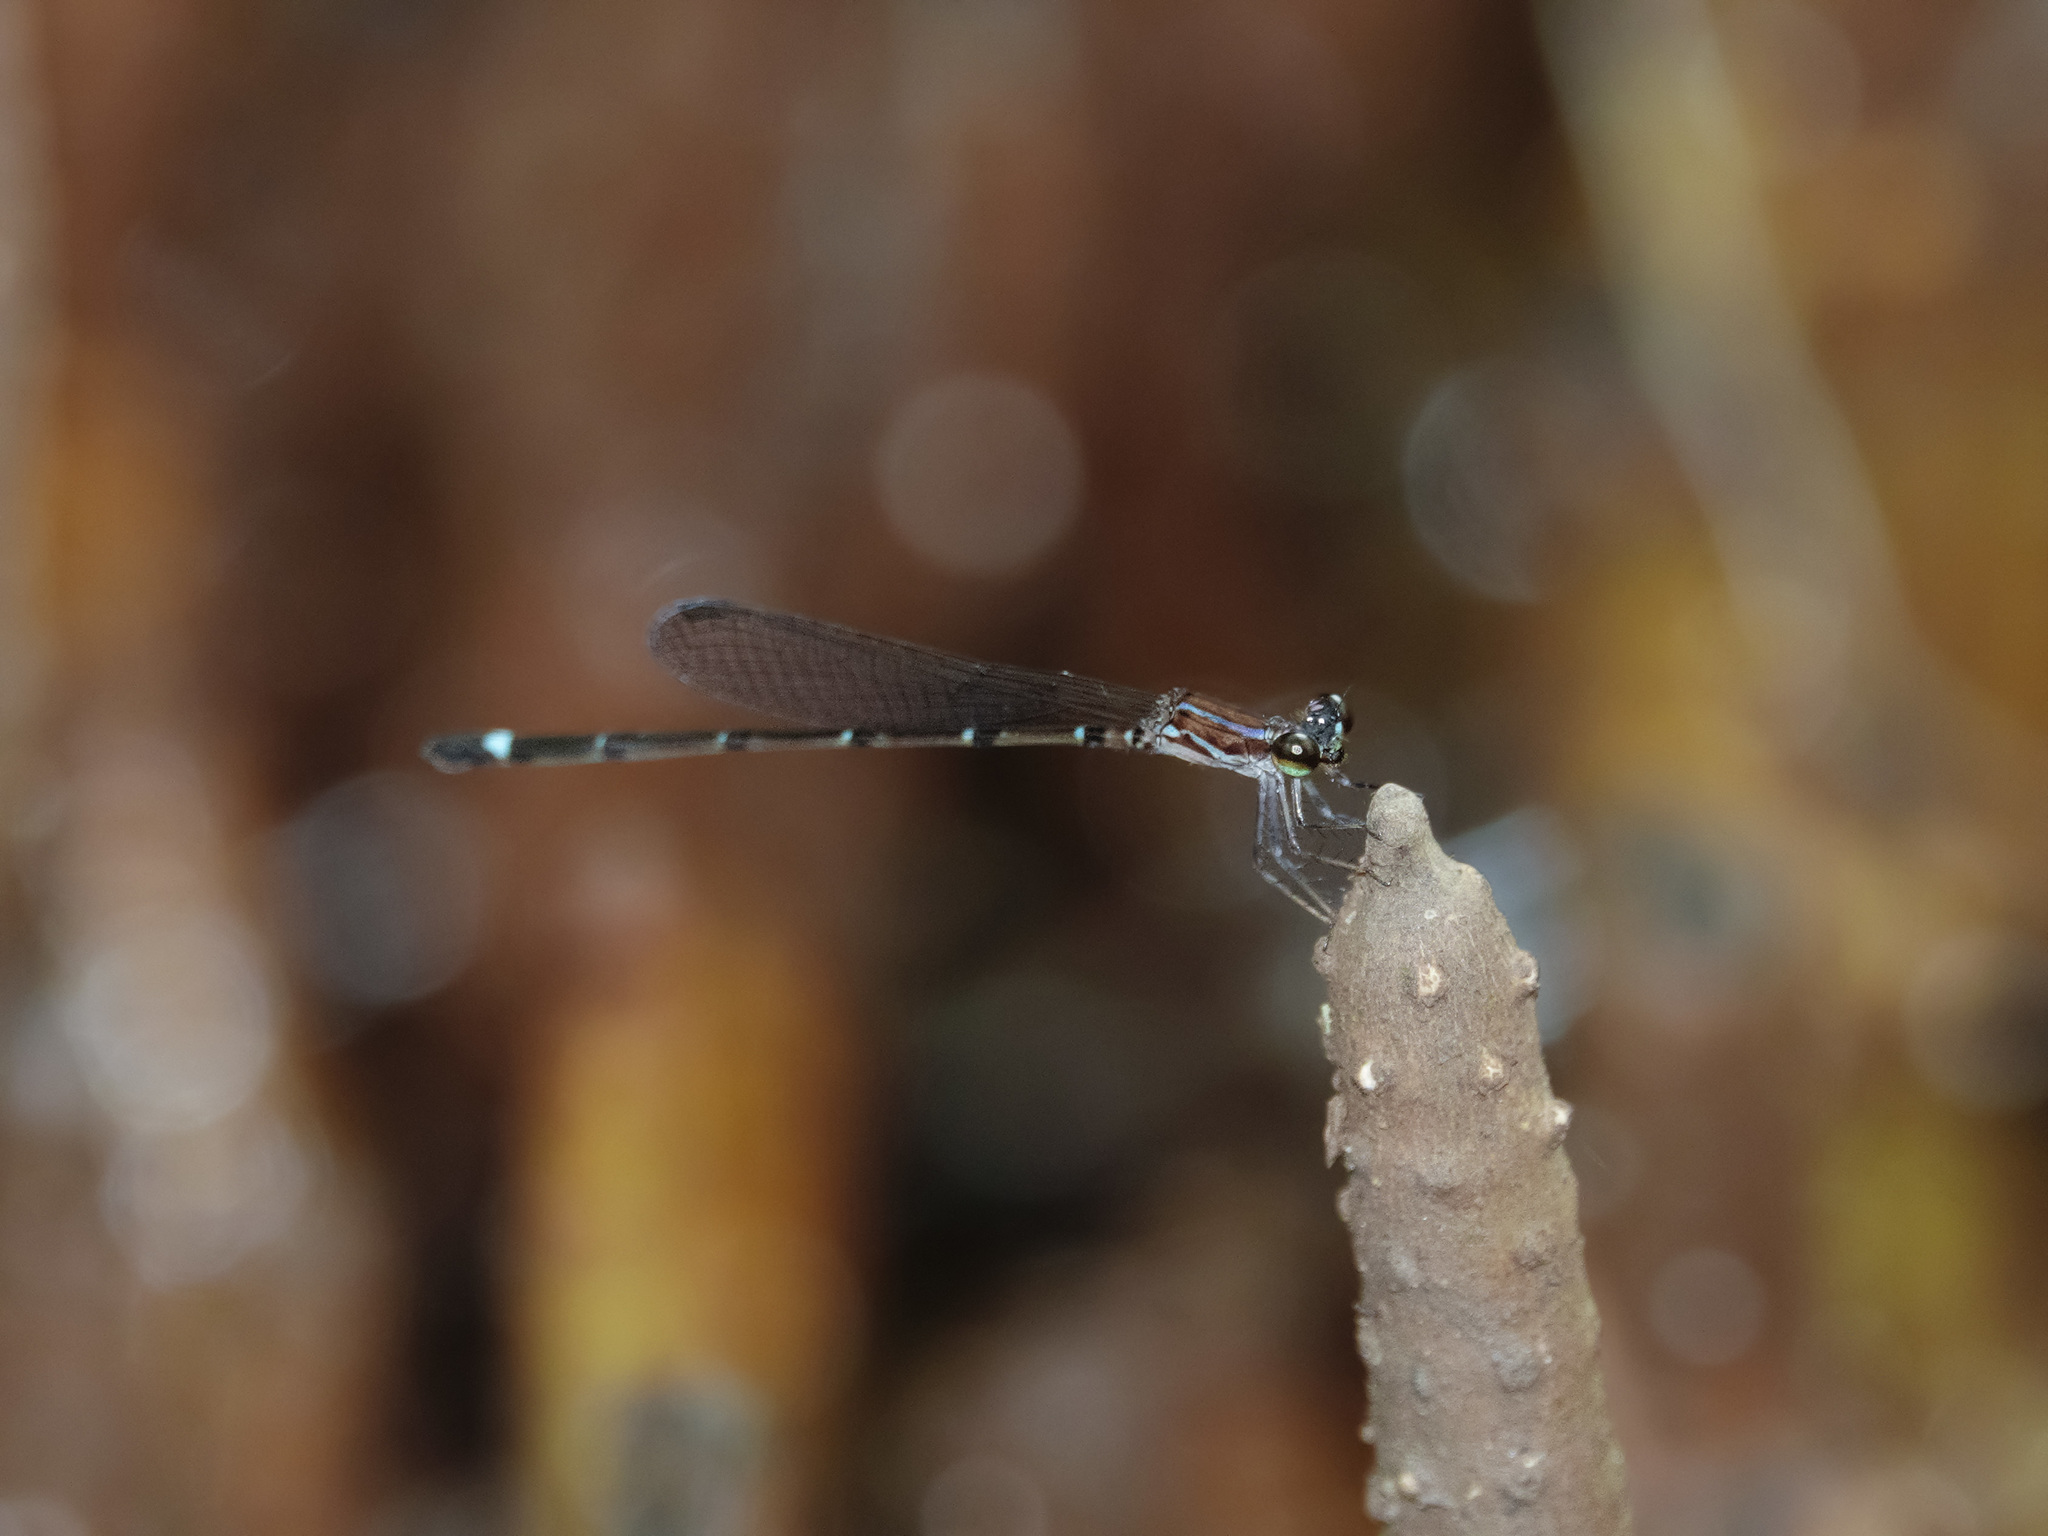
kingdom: Animalia
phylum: Arthropoda
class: Insecta
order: Odonata
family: Coenagrionidae
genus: Mortonagrion
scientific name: Mortonagrion arthuri
